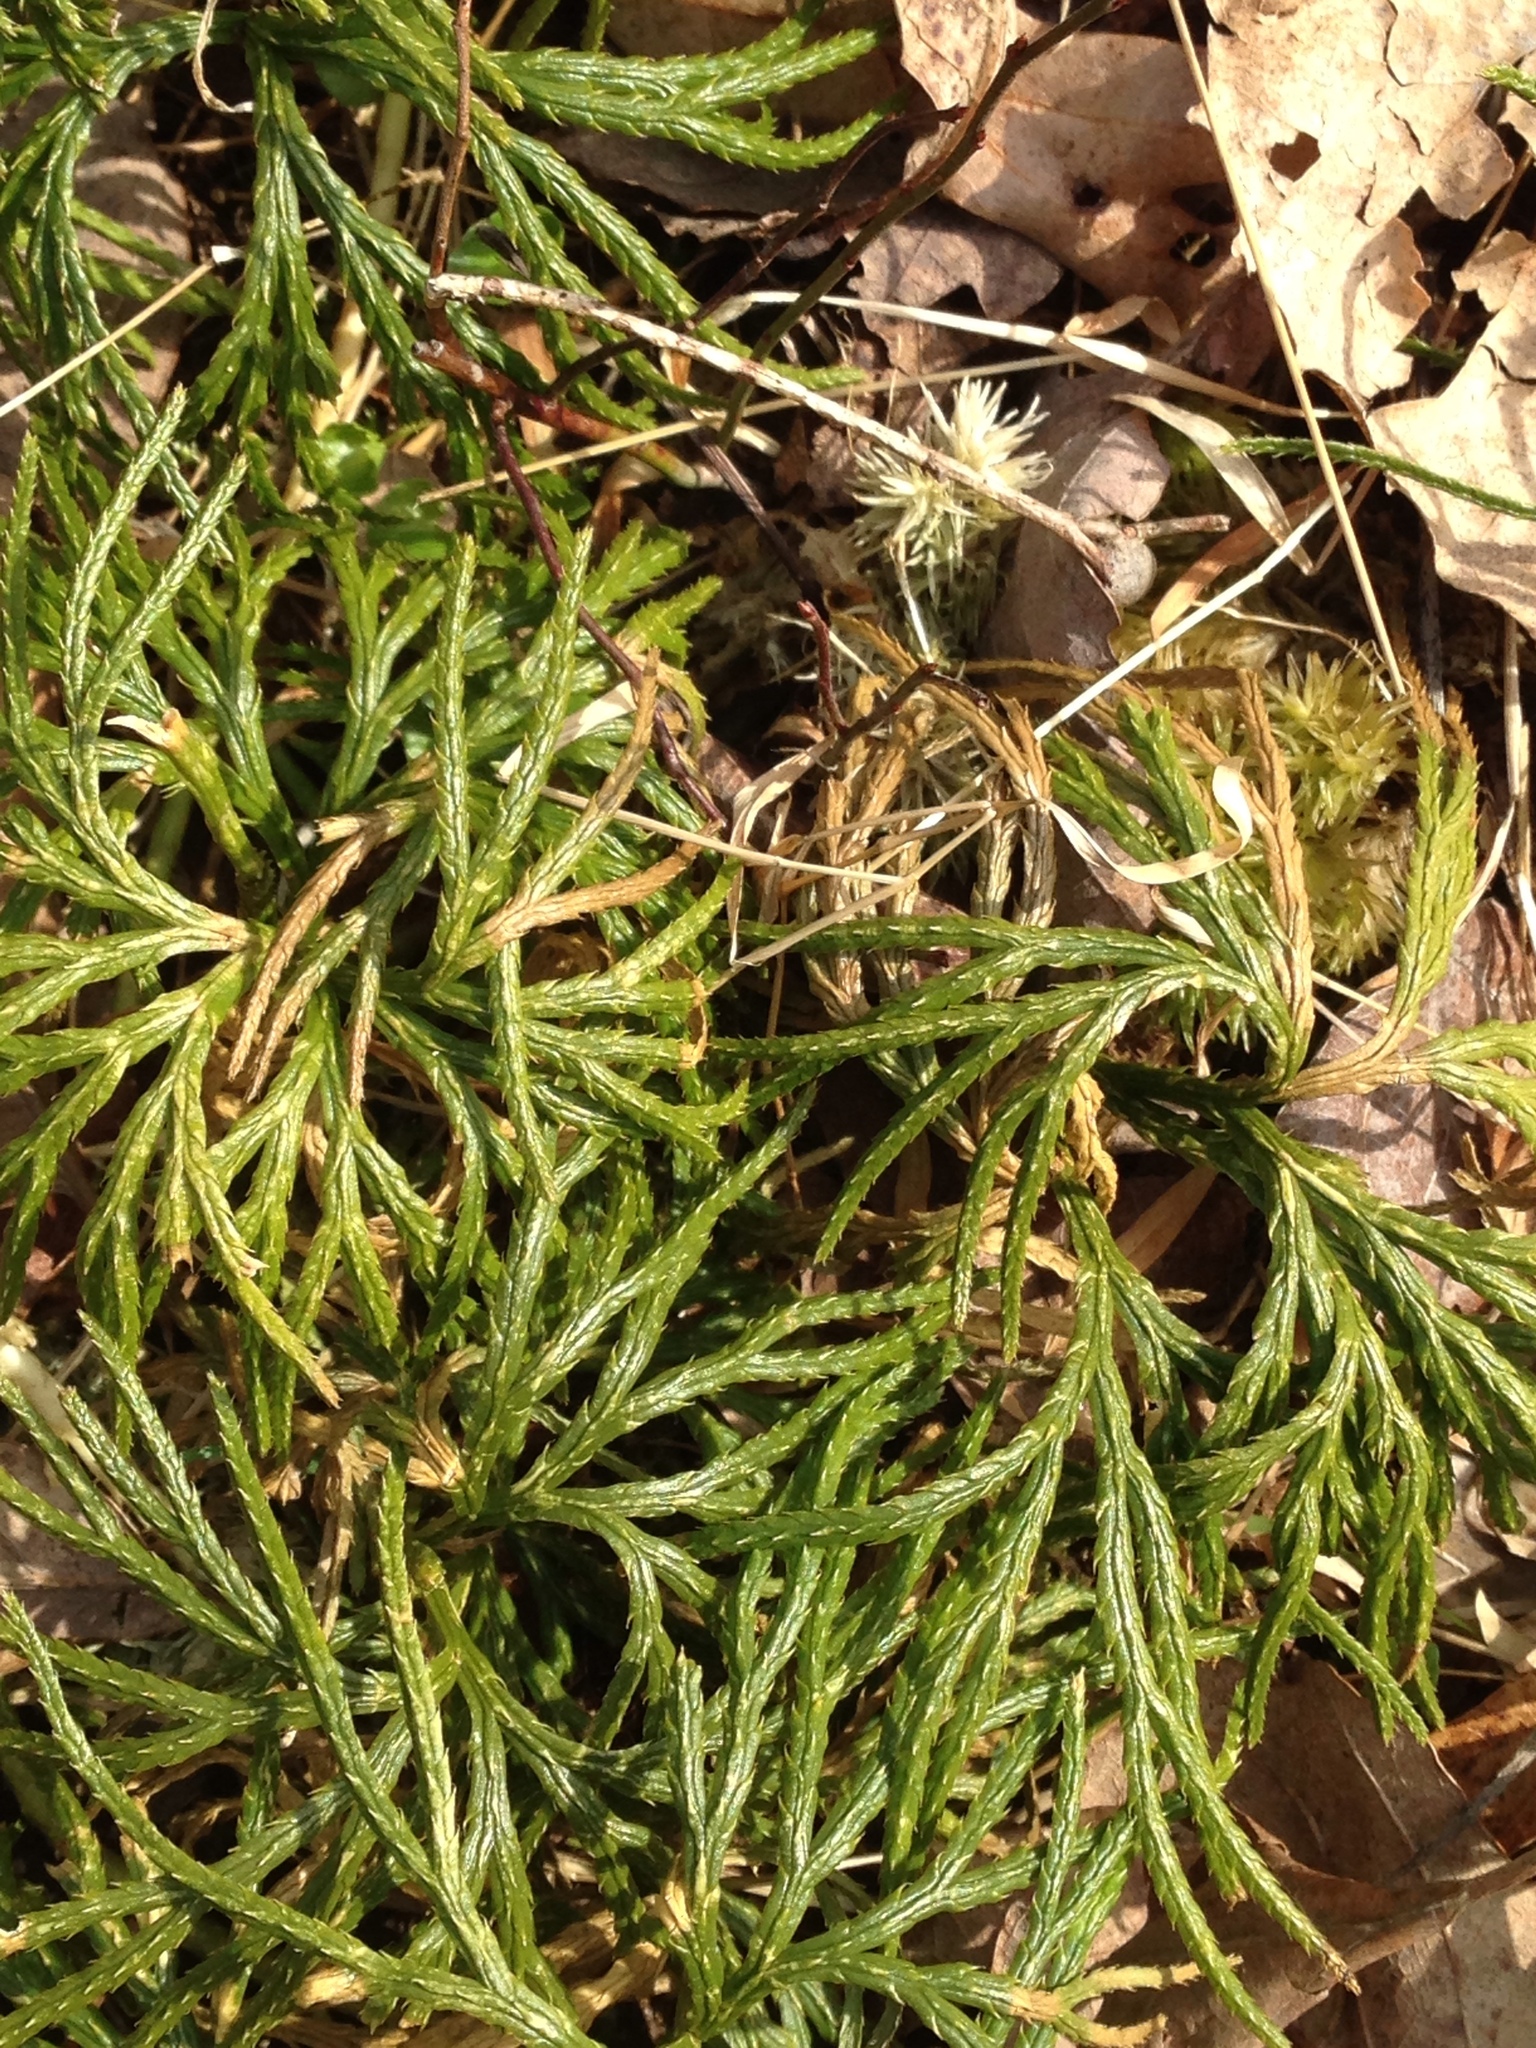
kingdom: Plantae
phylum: Tracheophyta
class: Lycopodiopsida
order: Lycopodiales
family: Lycopodiaceae
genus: Diphasiastrum
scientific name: Diphasiastrum digitatum
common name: Southern running-pine
